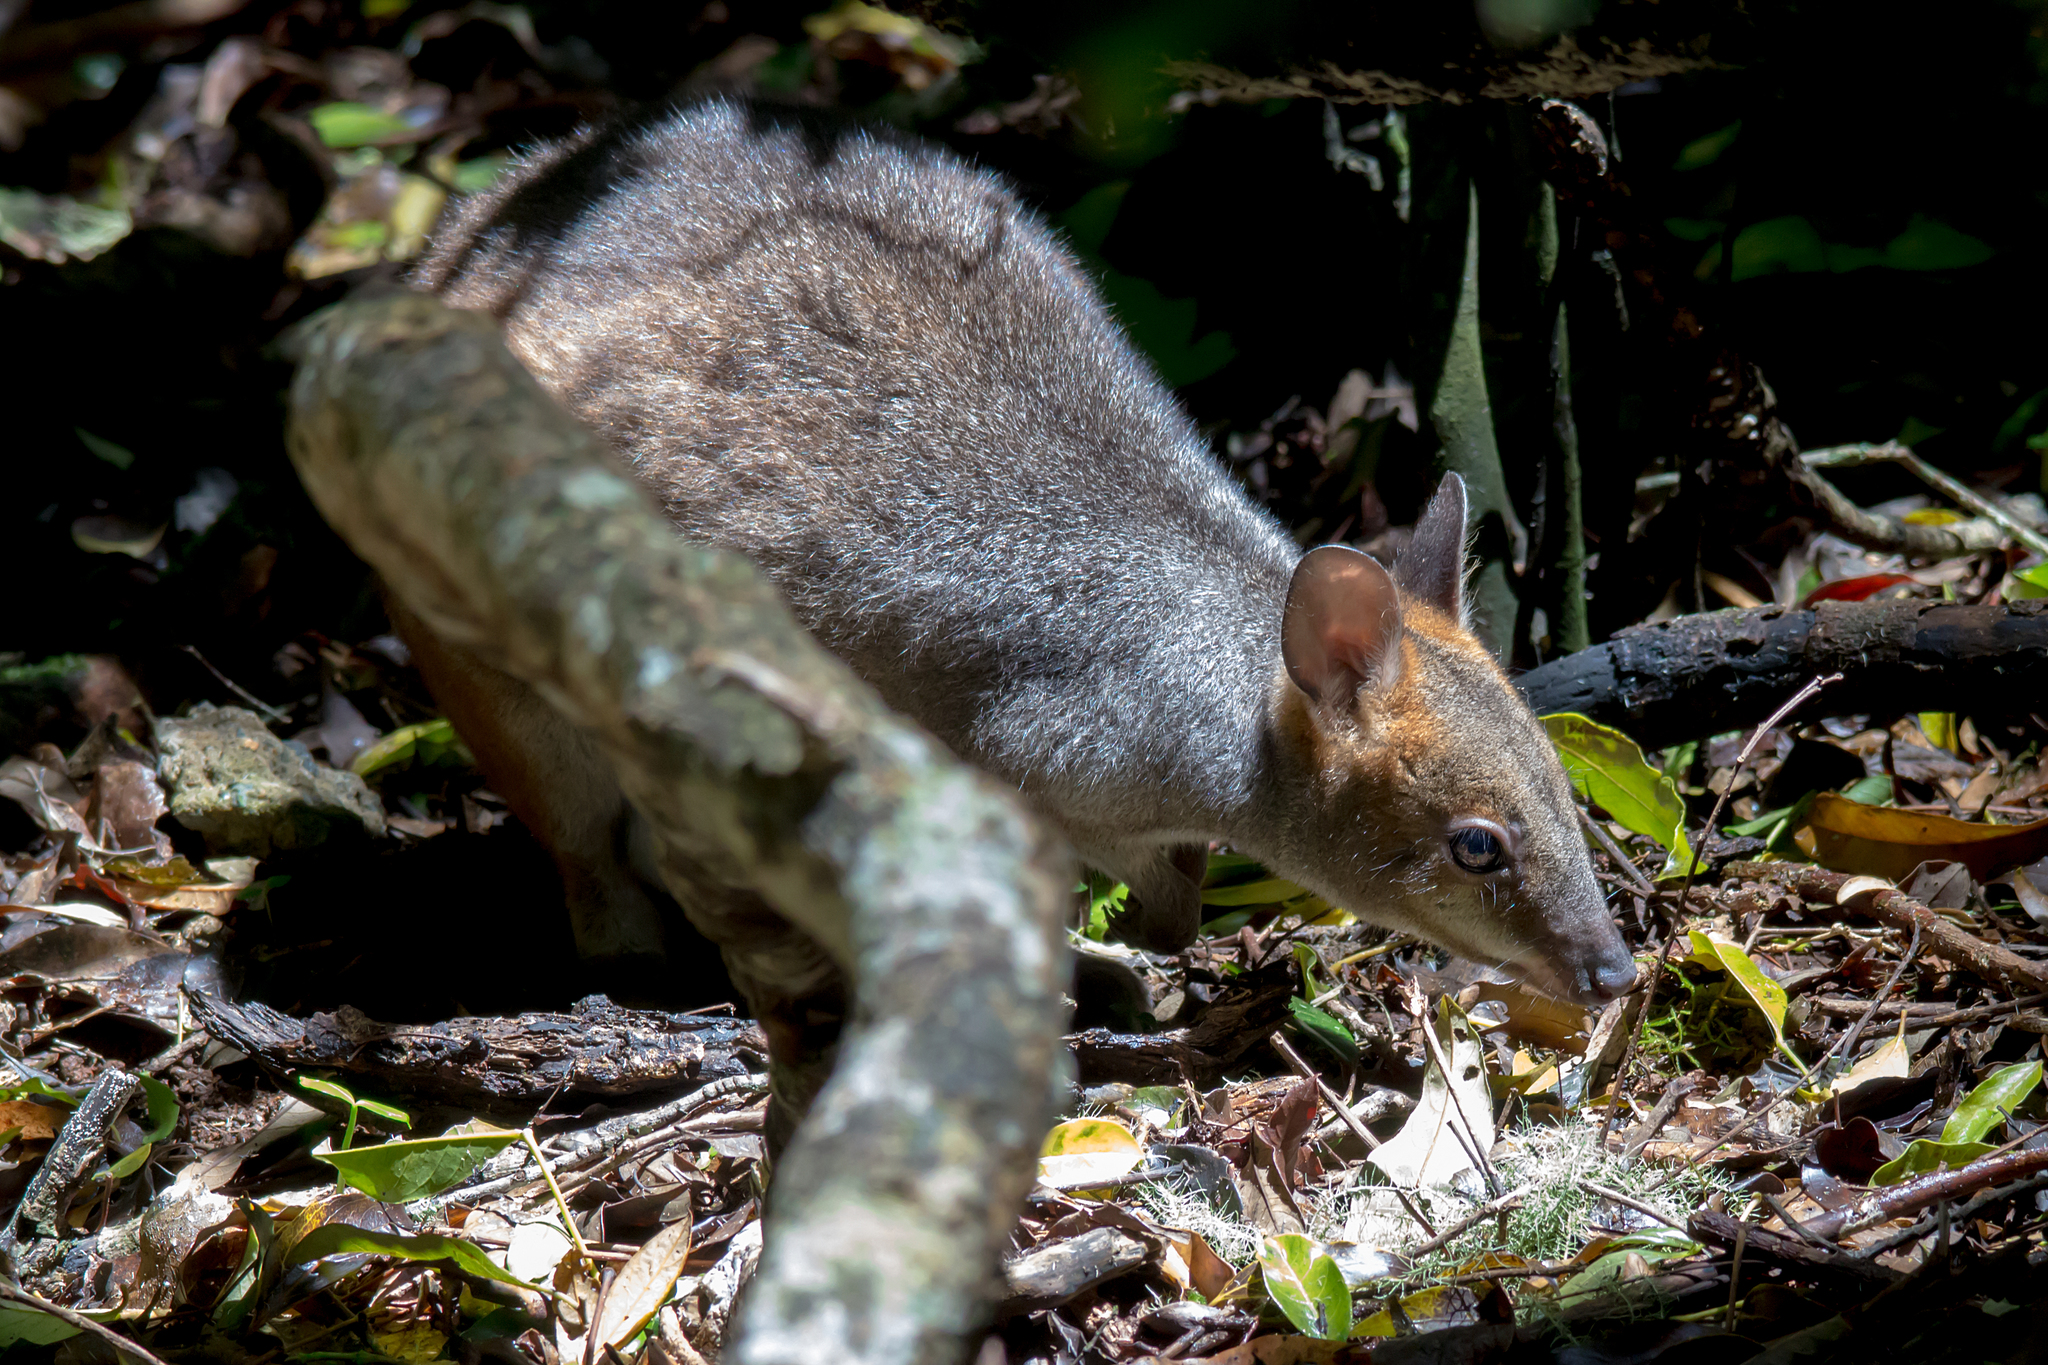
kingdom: Animalia
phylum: Chordata
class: Mammalia
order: Diprotodontia
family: Macropodidae
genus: Thylogale
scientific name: Thylogale stigmatica
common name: Red-legged pademelon
